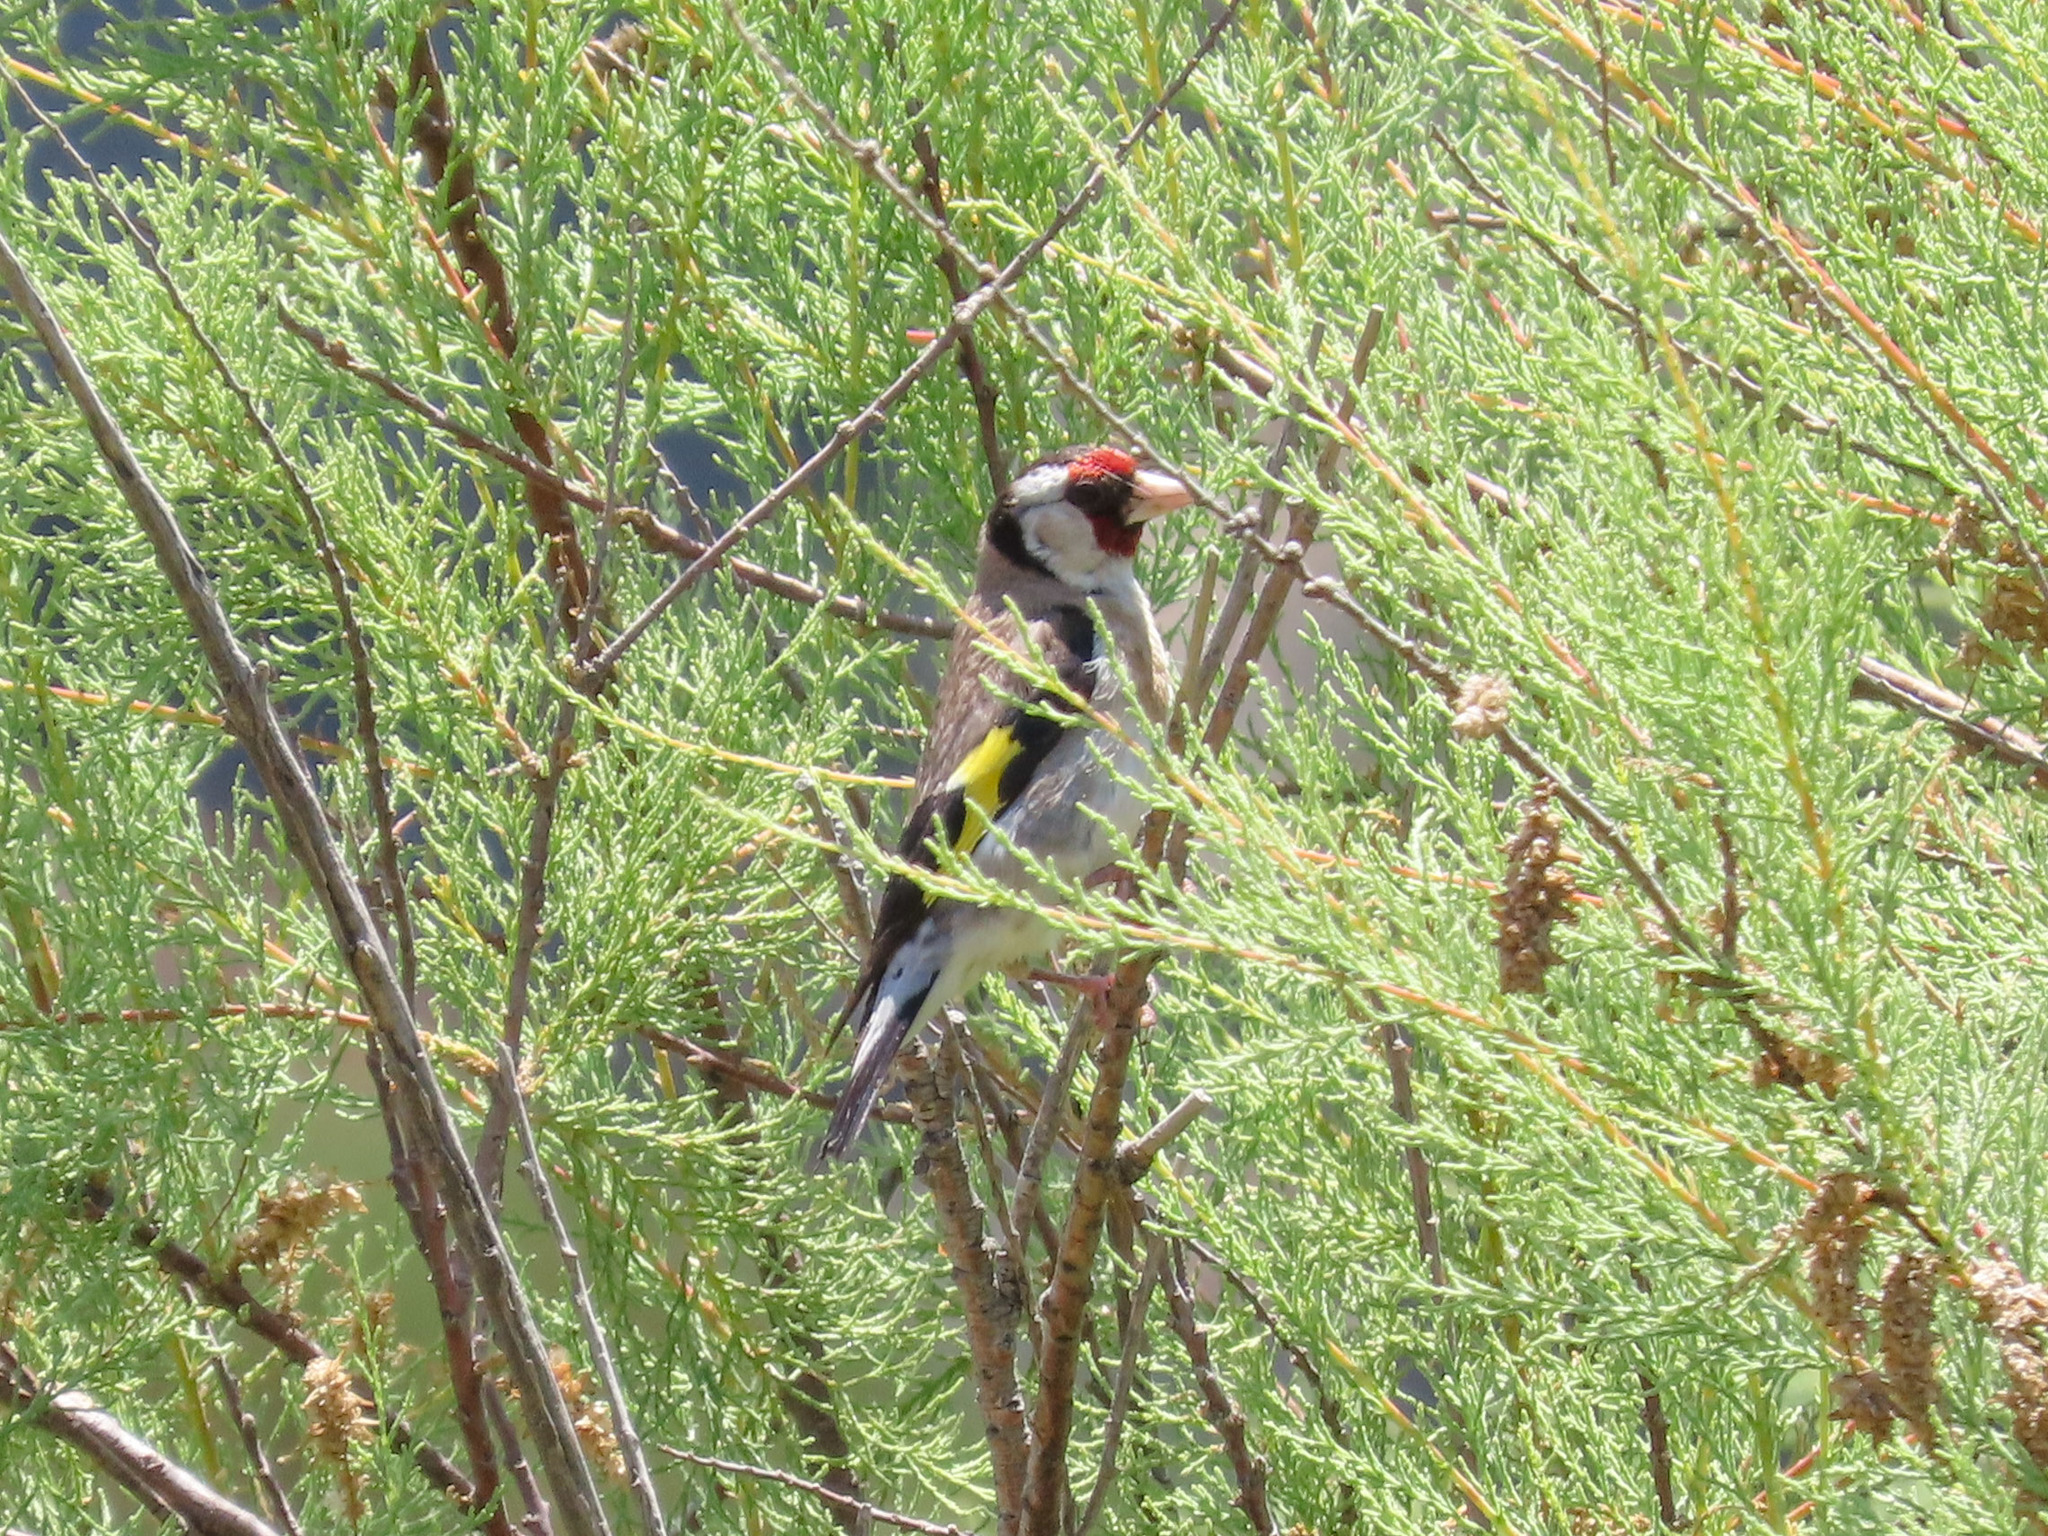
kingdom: Animalia
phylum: Chordata
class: Aves
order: Passeriformes
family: Fringillidae
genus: Carduelis
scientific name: Carduelis carduelis
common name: European goldfinch
